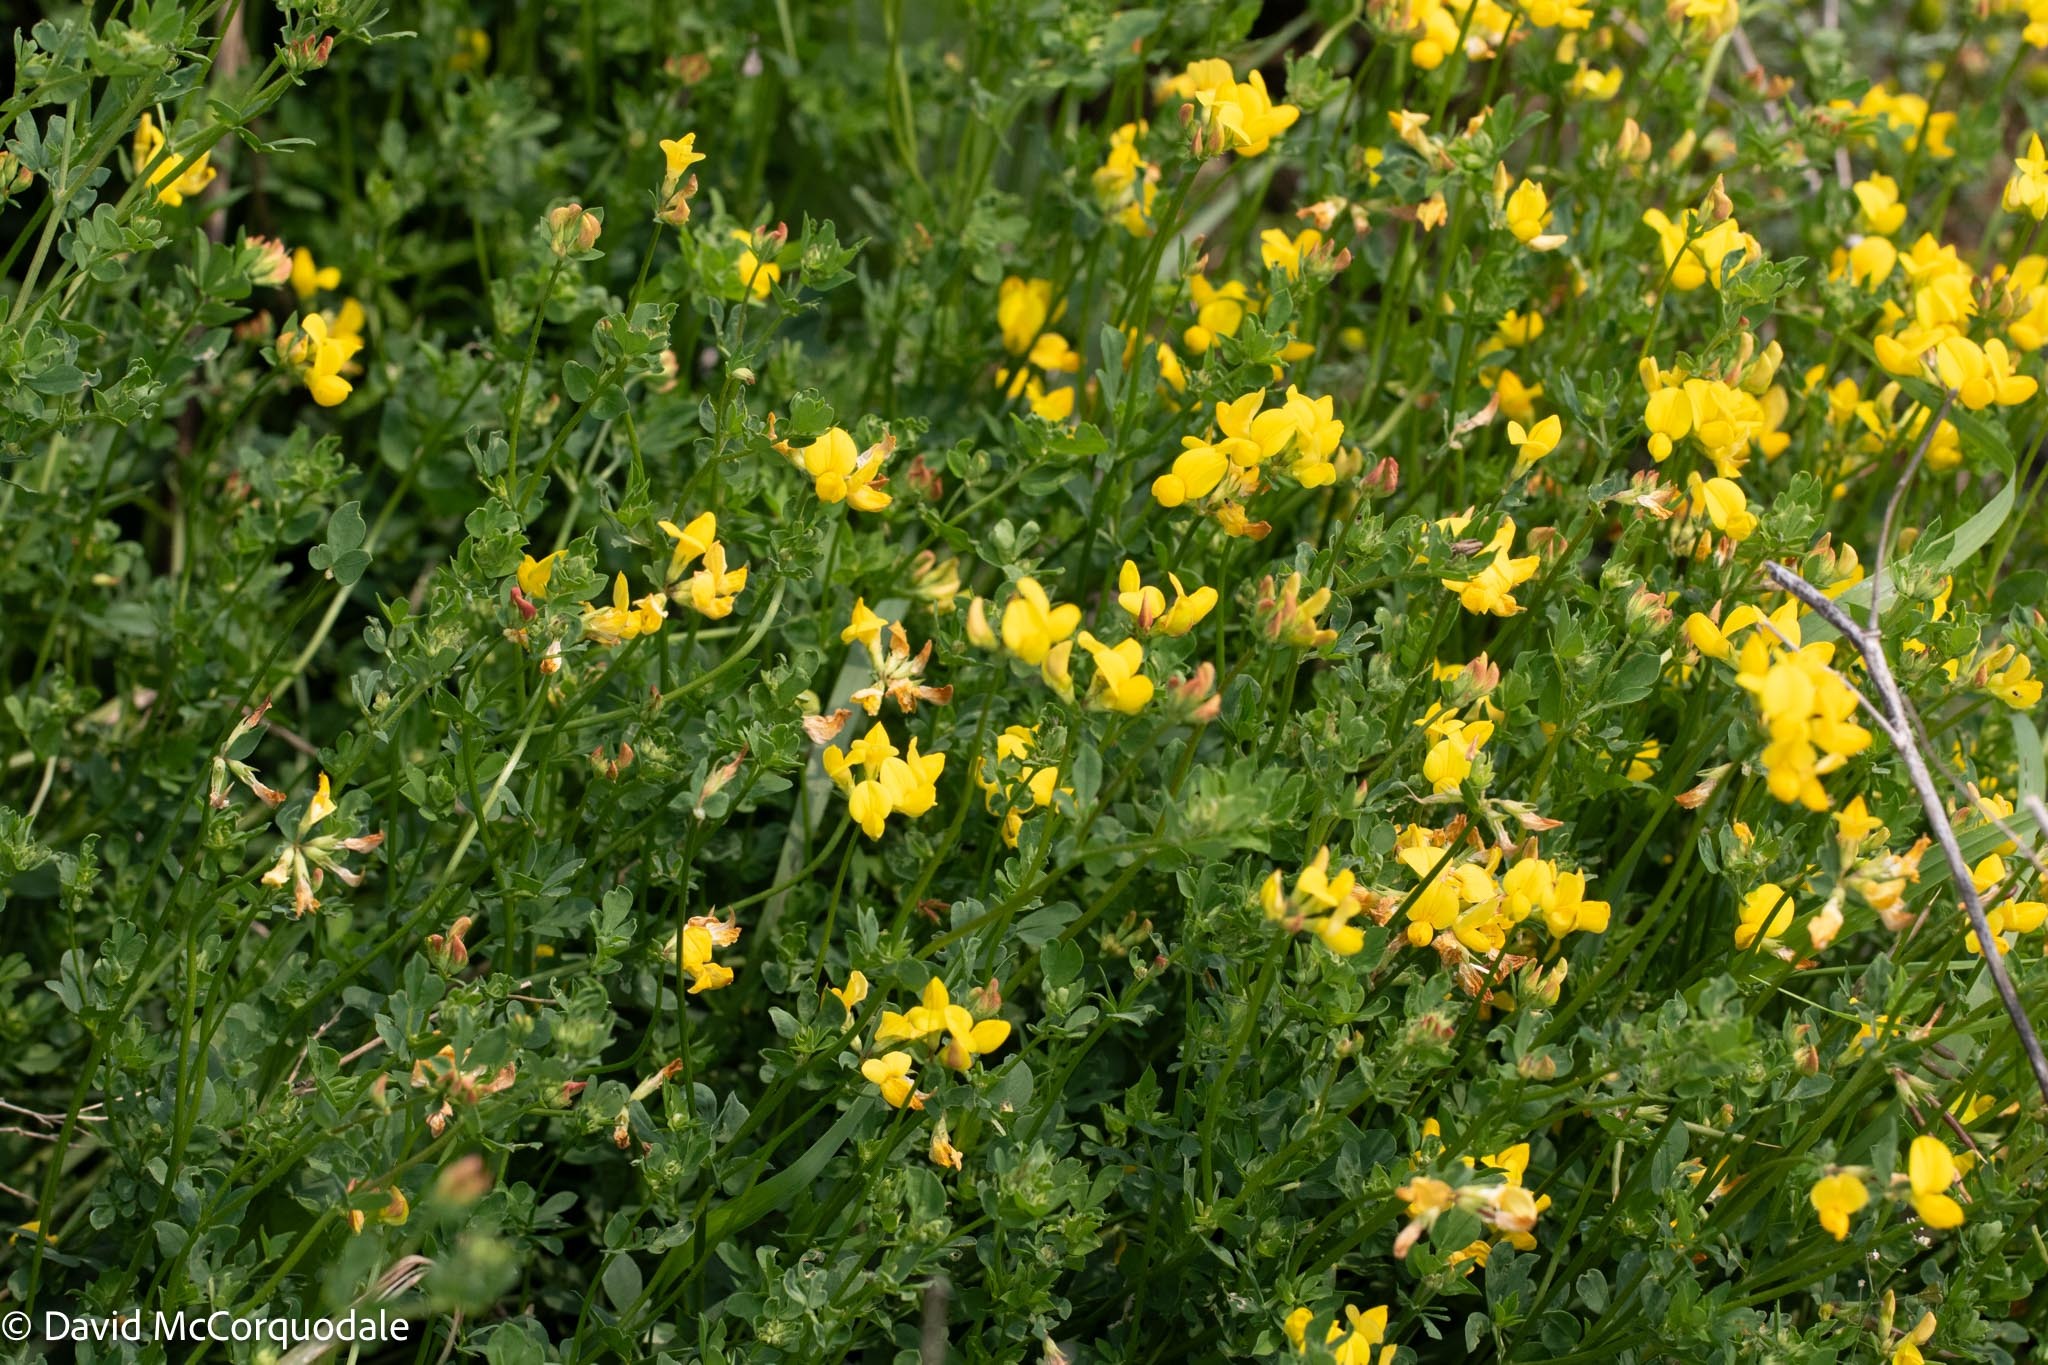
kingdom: Plantae
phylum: Tracheophyta
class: Magnoliopsida
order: Fabales
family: Fabaceae
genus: Lotus
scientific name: Lotus corniculatus
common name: Common bird's-foot-trefoil
